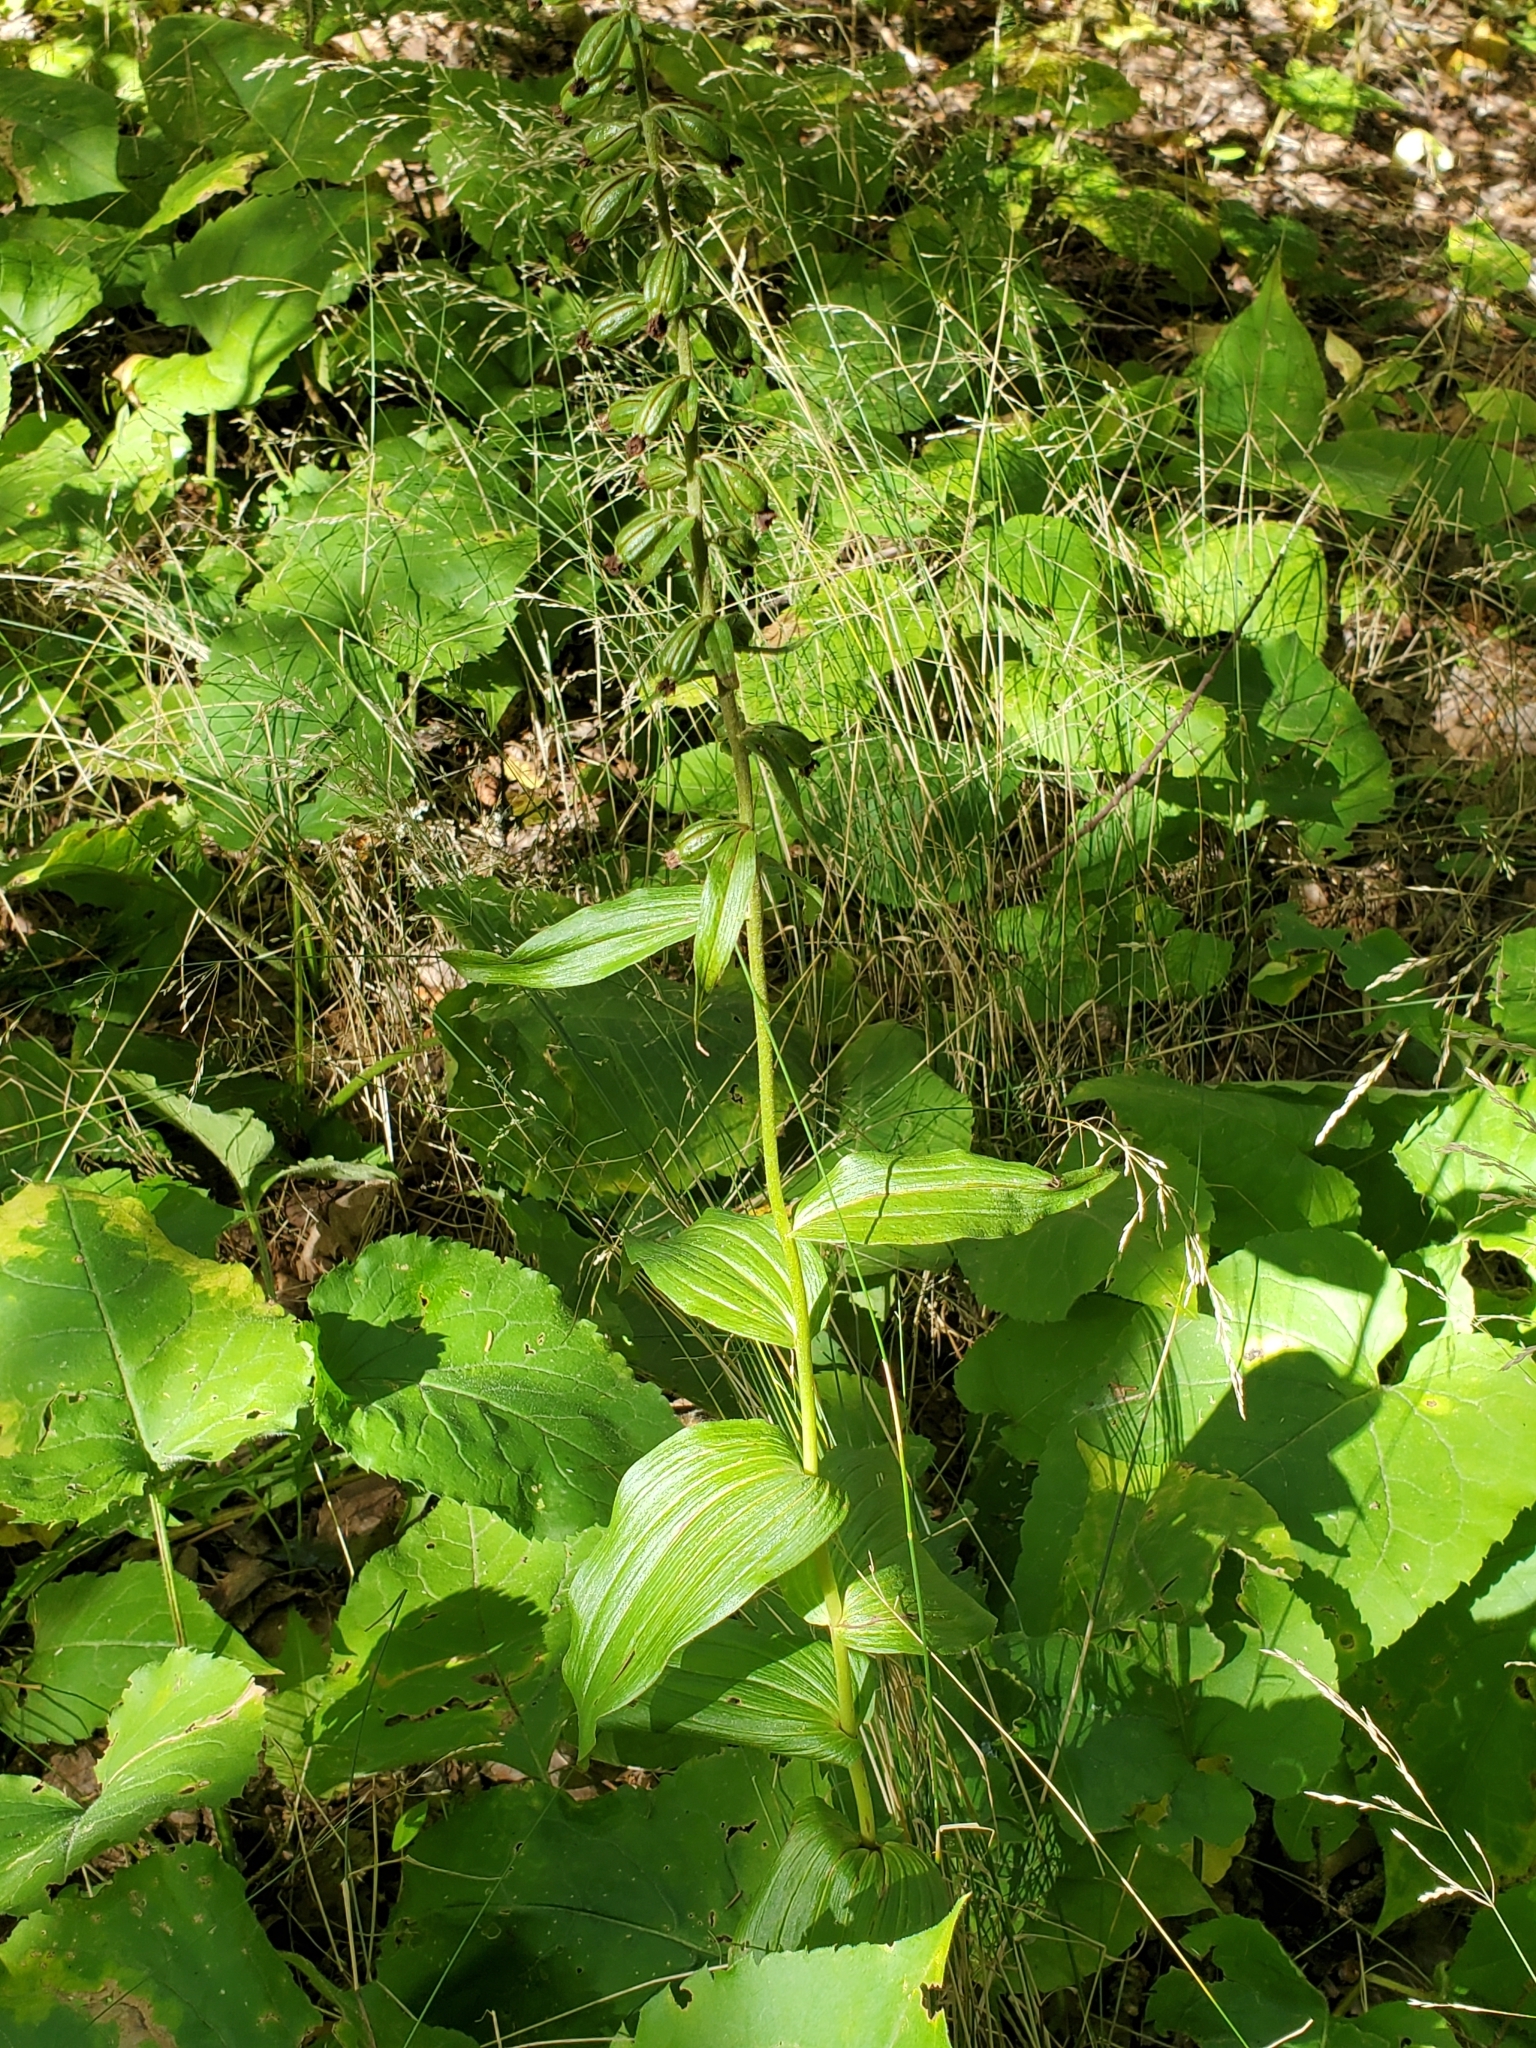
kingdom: Plantae
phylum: Tracheophyta
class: Liliopsida
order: Asparagales
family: Orchidaceae
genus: Epipactis
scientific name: Epipactis helleborine
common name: Broad-leaved helleborine
